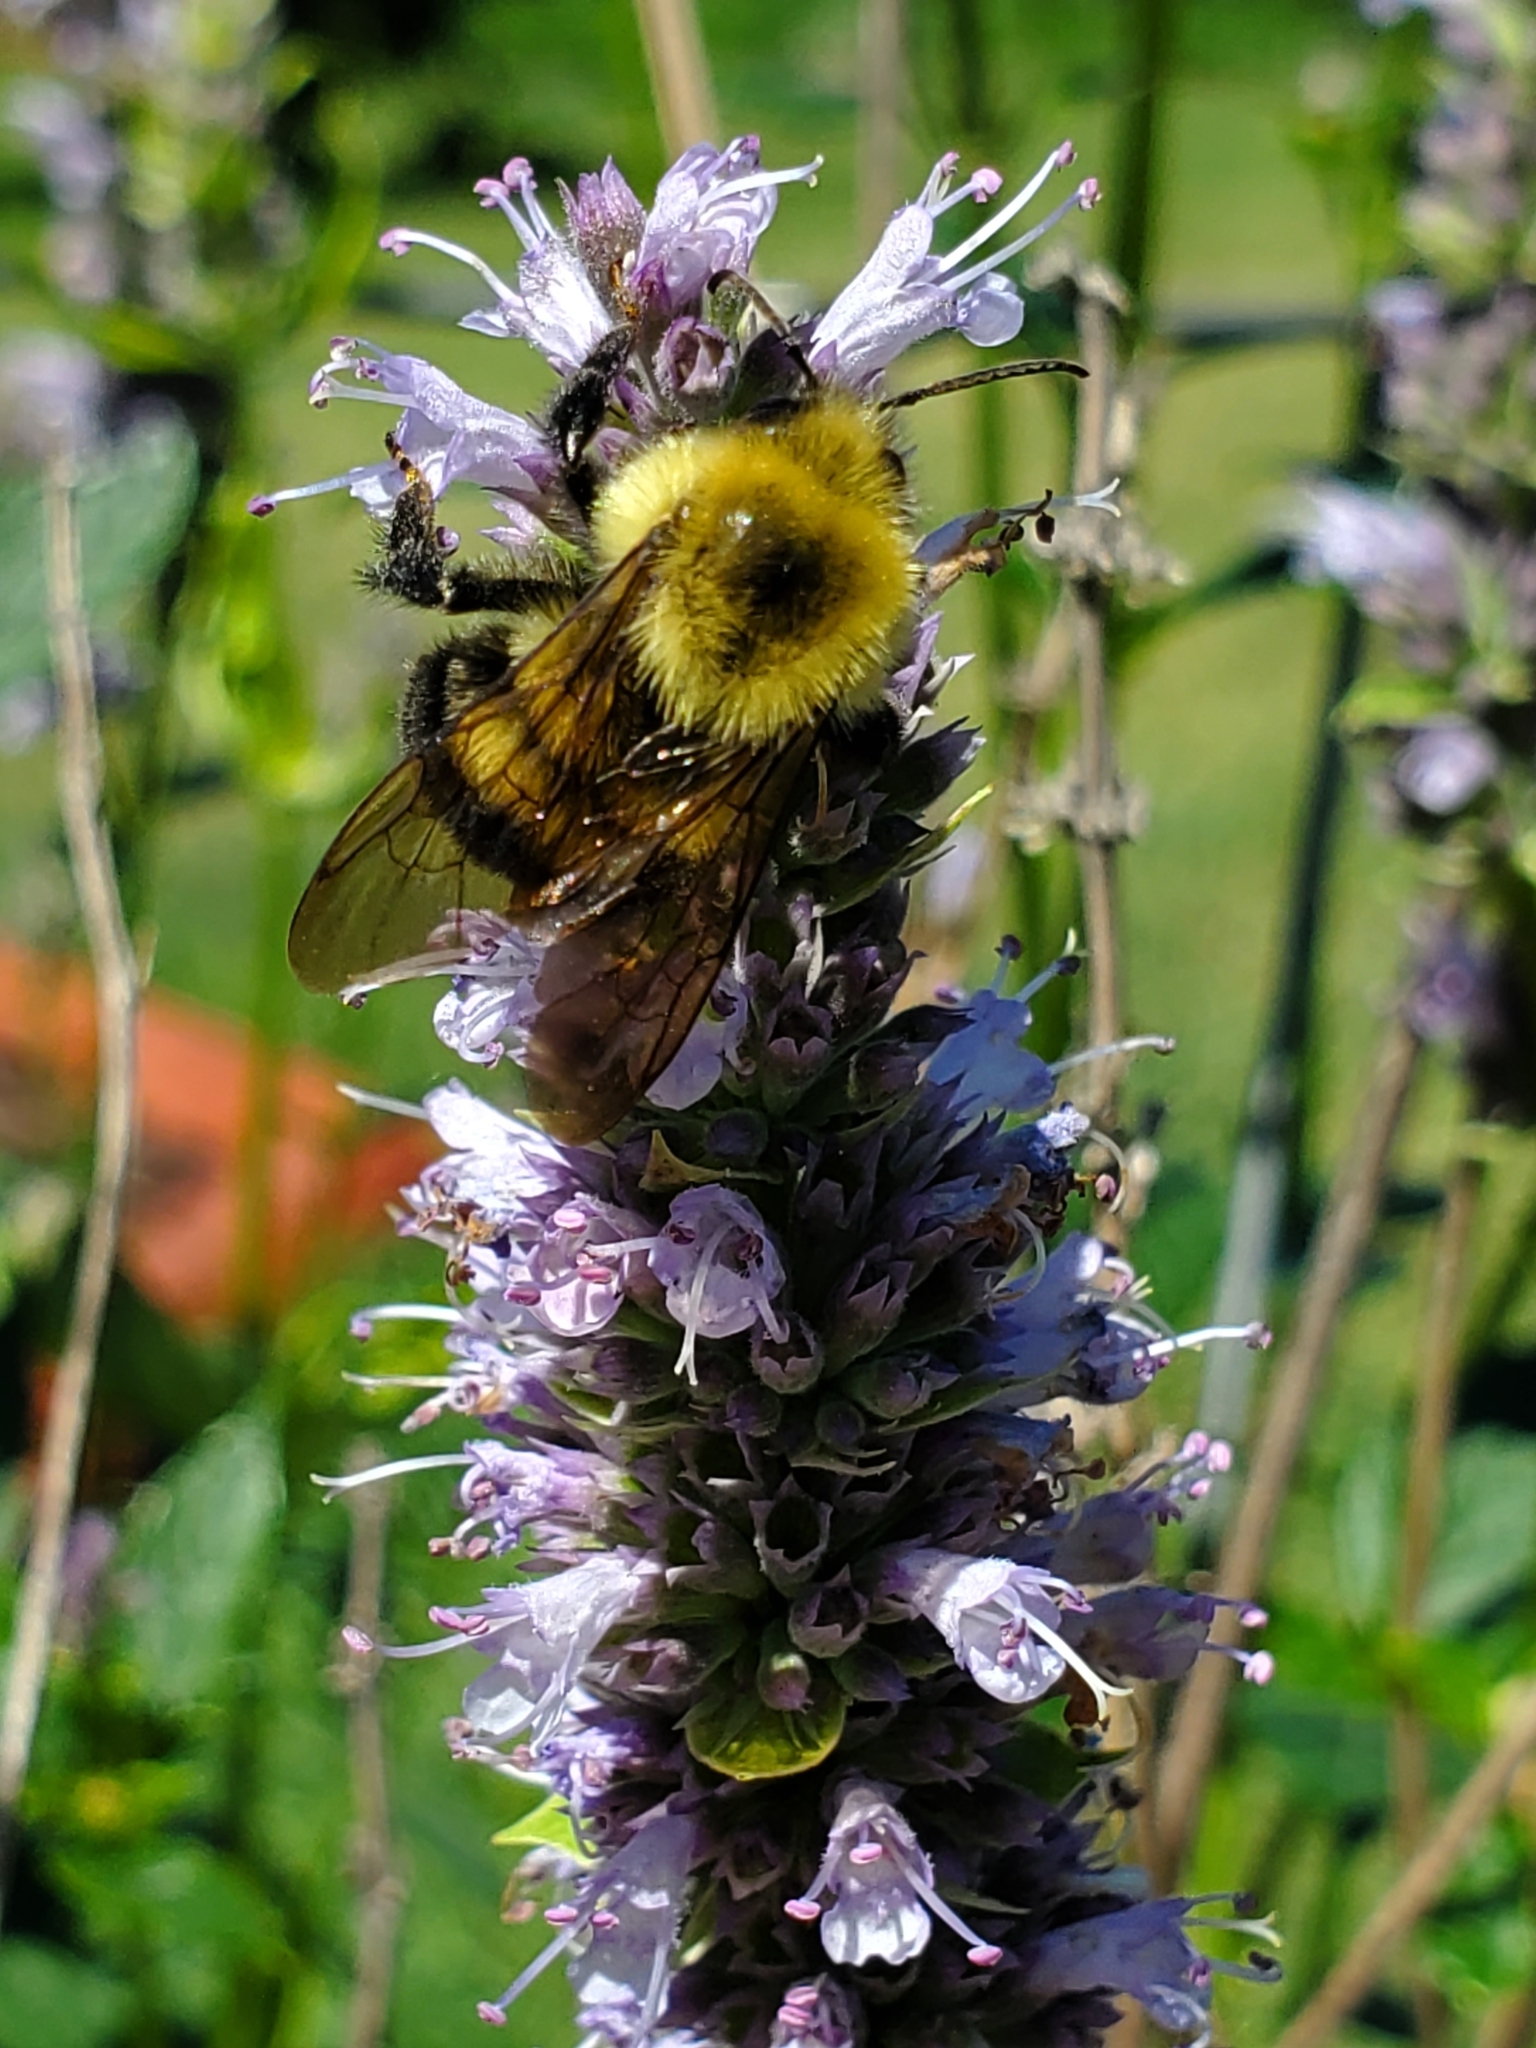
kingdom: Animalia
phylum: Arthropoda
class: Insecta
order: Hymenoptera
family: Apidae
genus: Bombus
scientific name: Bombus bimaculatus
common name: Two-spotted bumble bee
